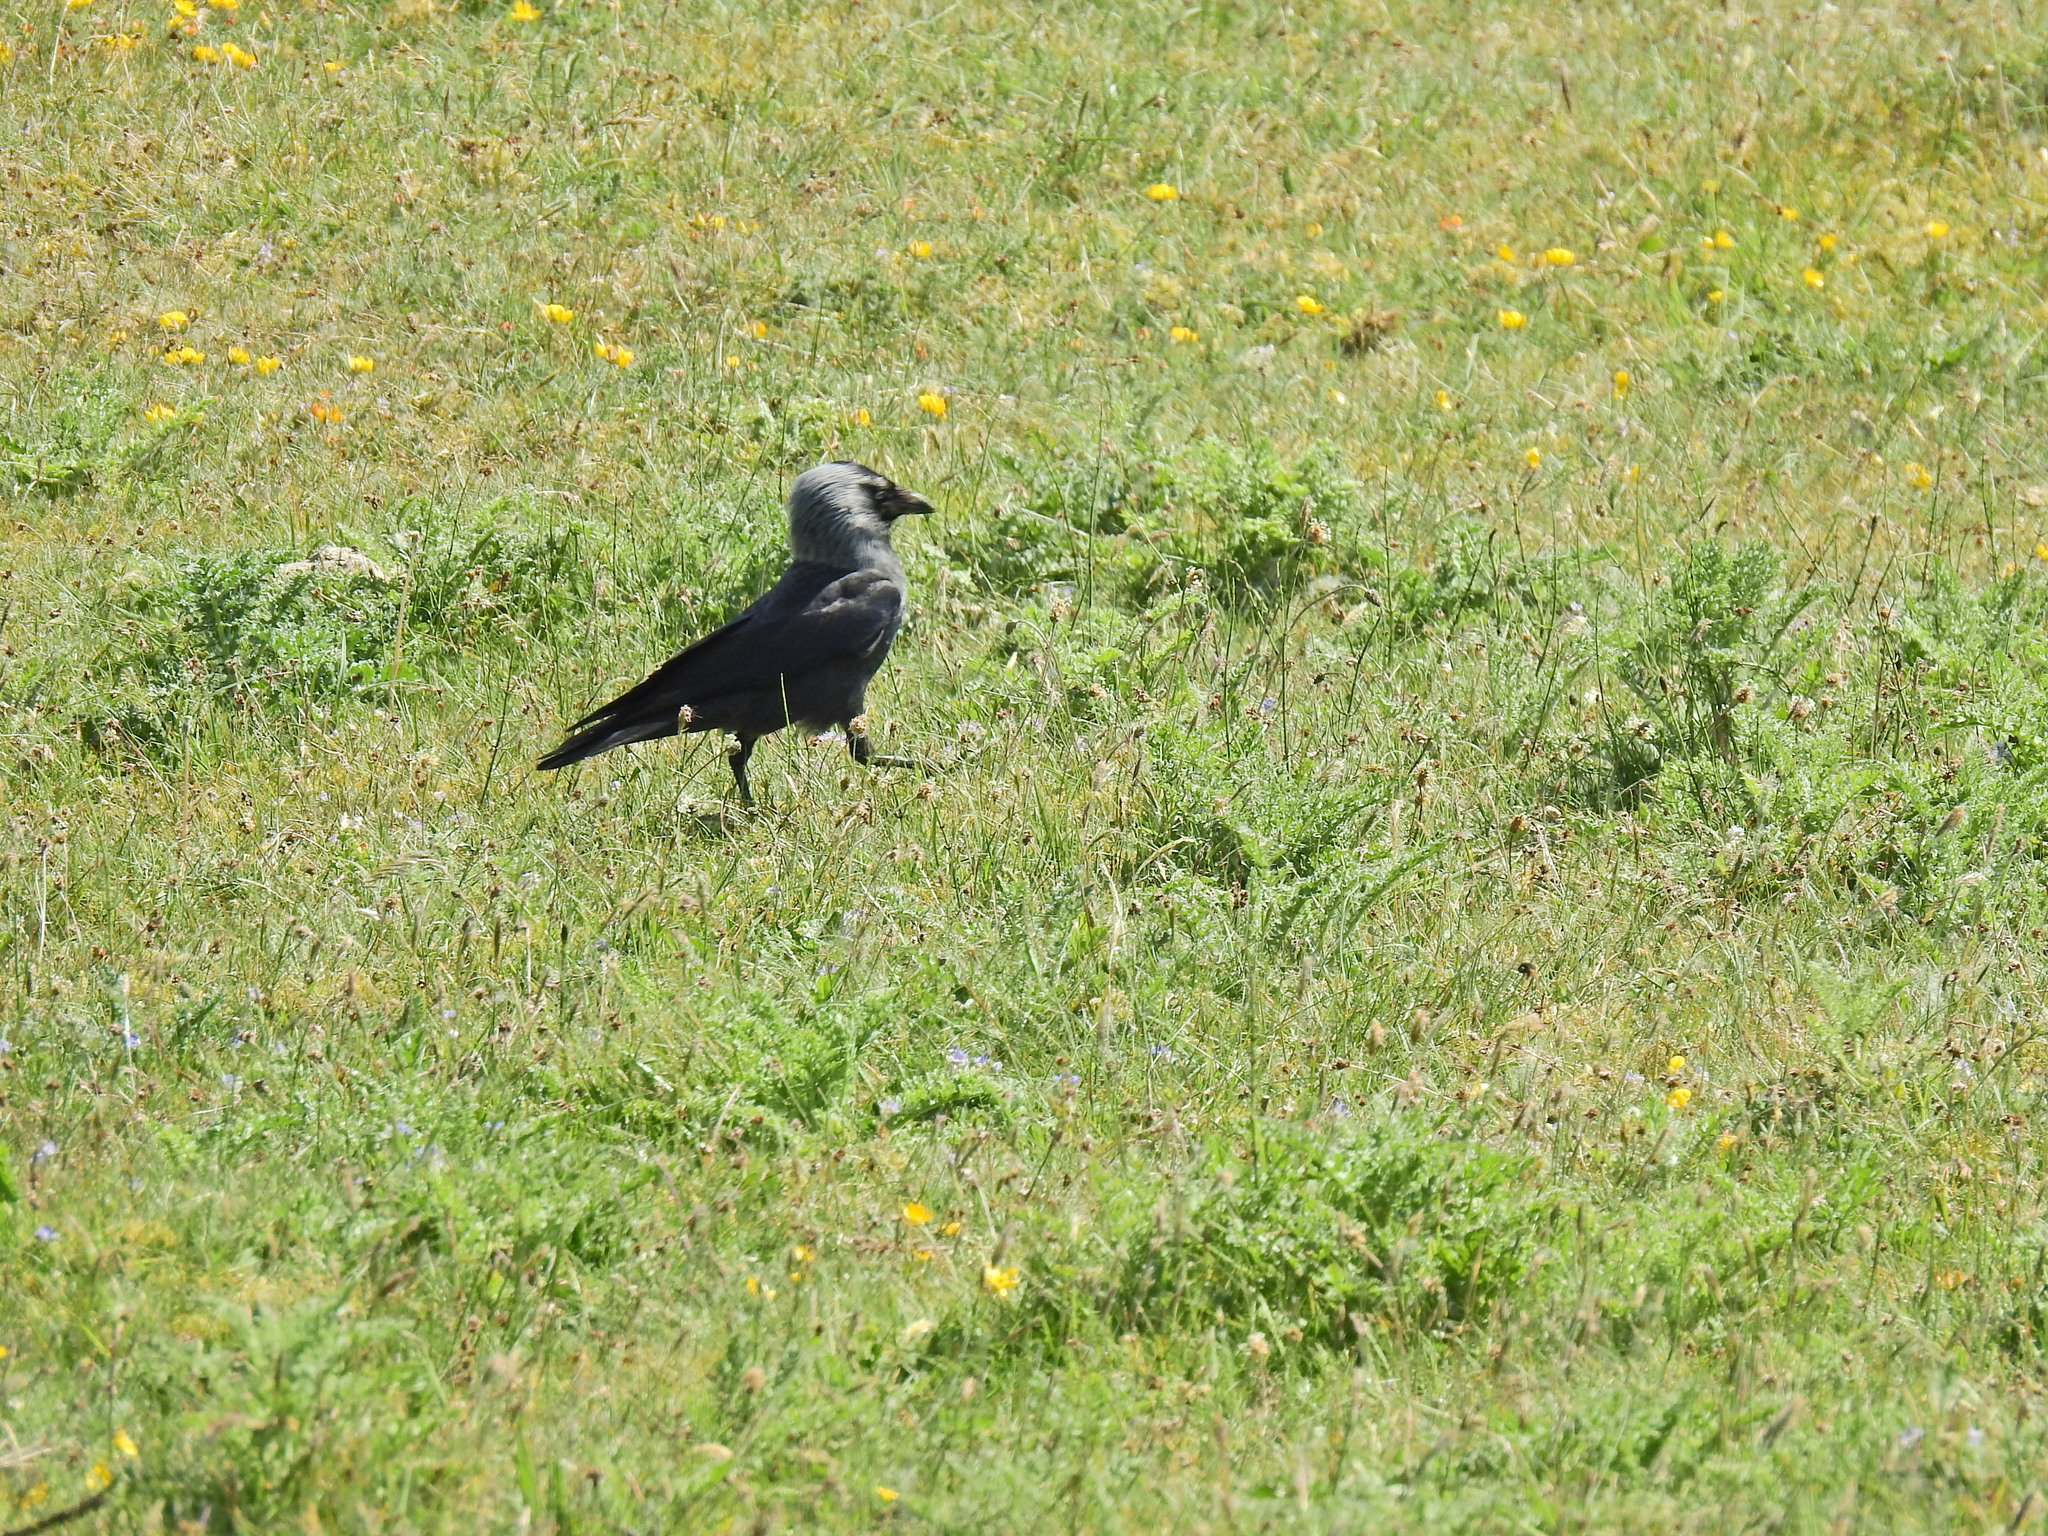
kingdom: Animalia
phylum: Chordata
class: Aves
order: Passeriformes
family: Corvidae
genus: Coloeus
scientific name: Coloeus monedula
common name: Western jackdaw
